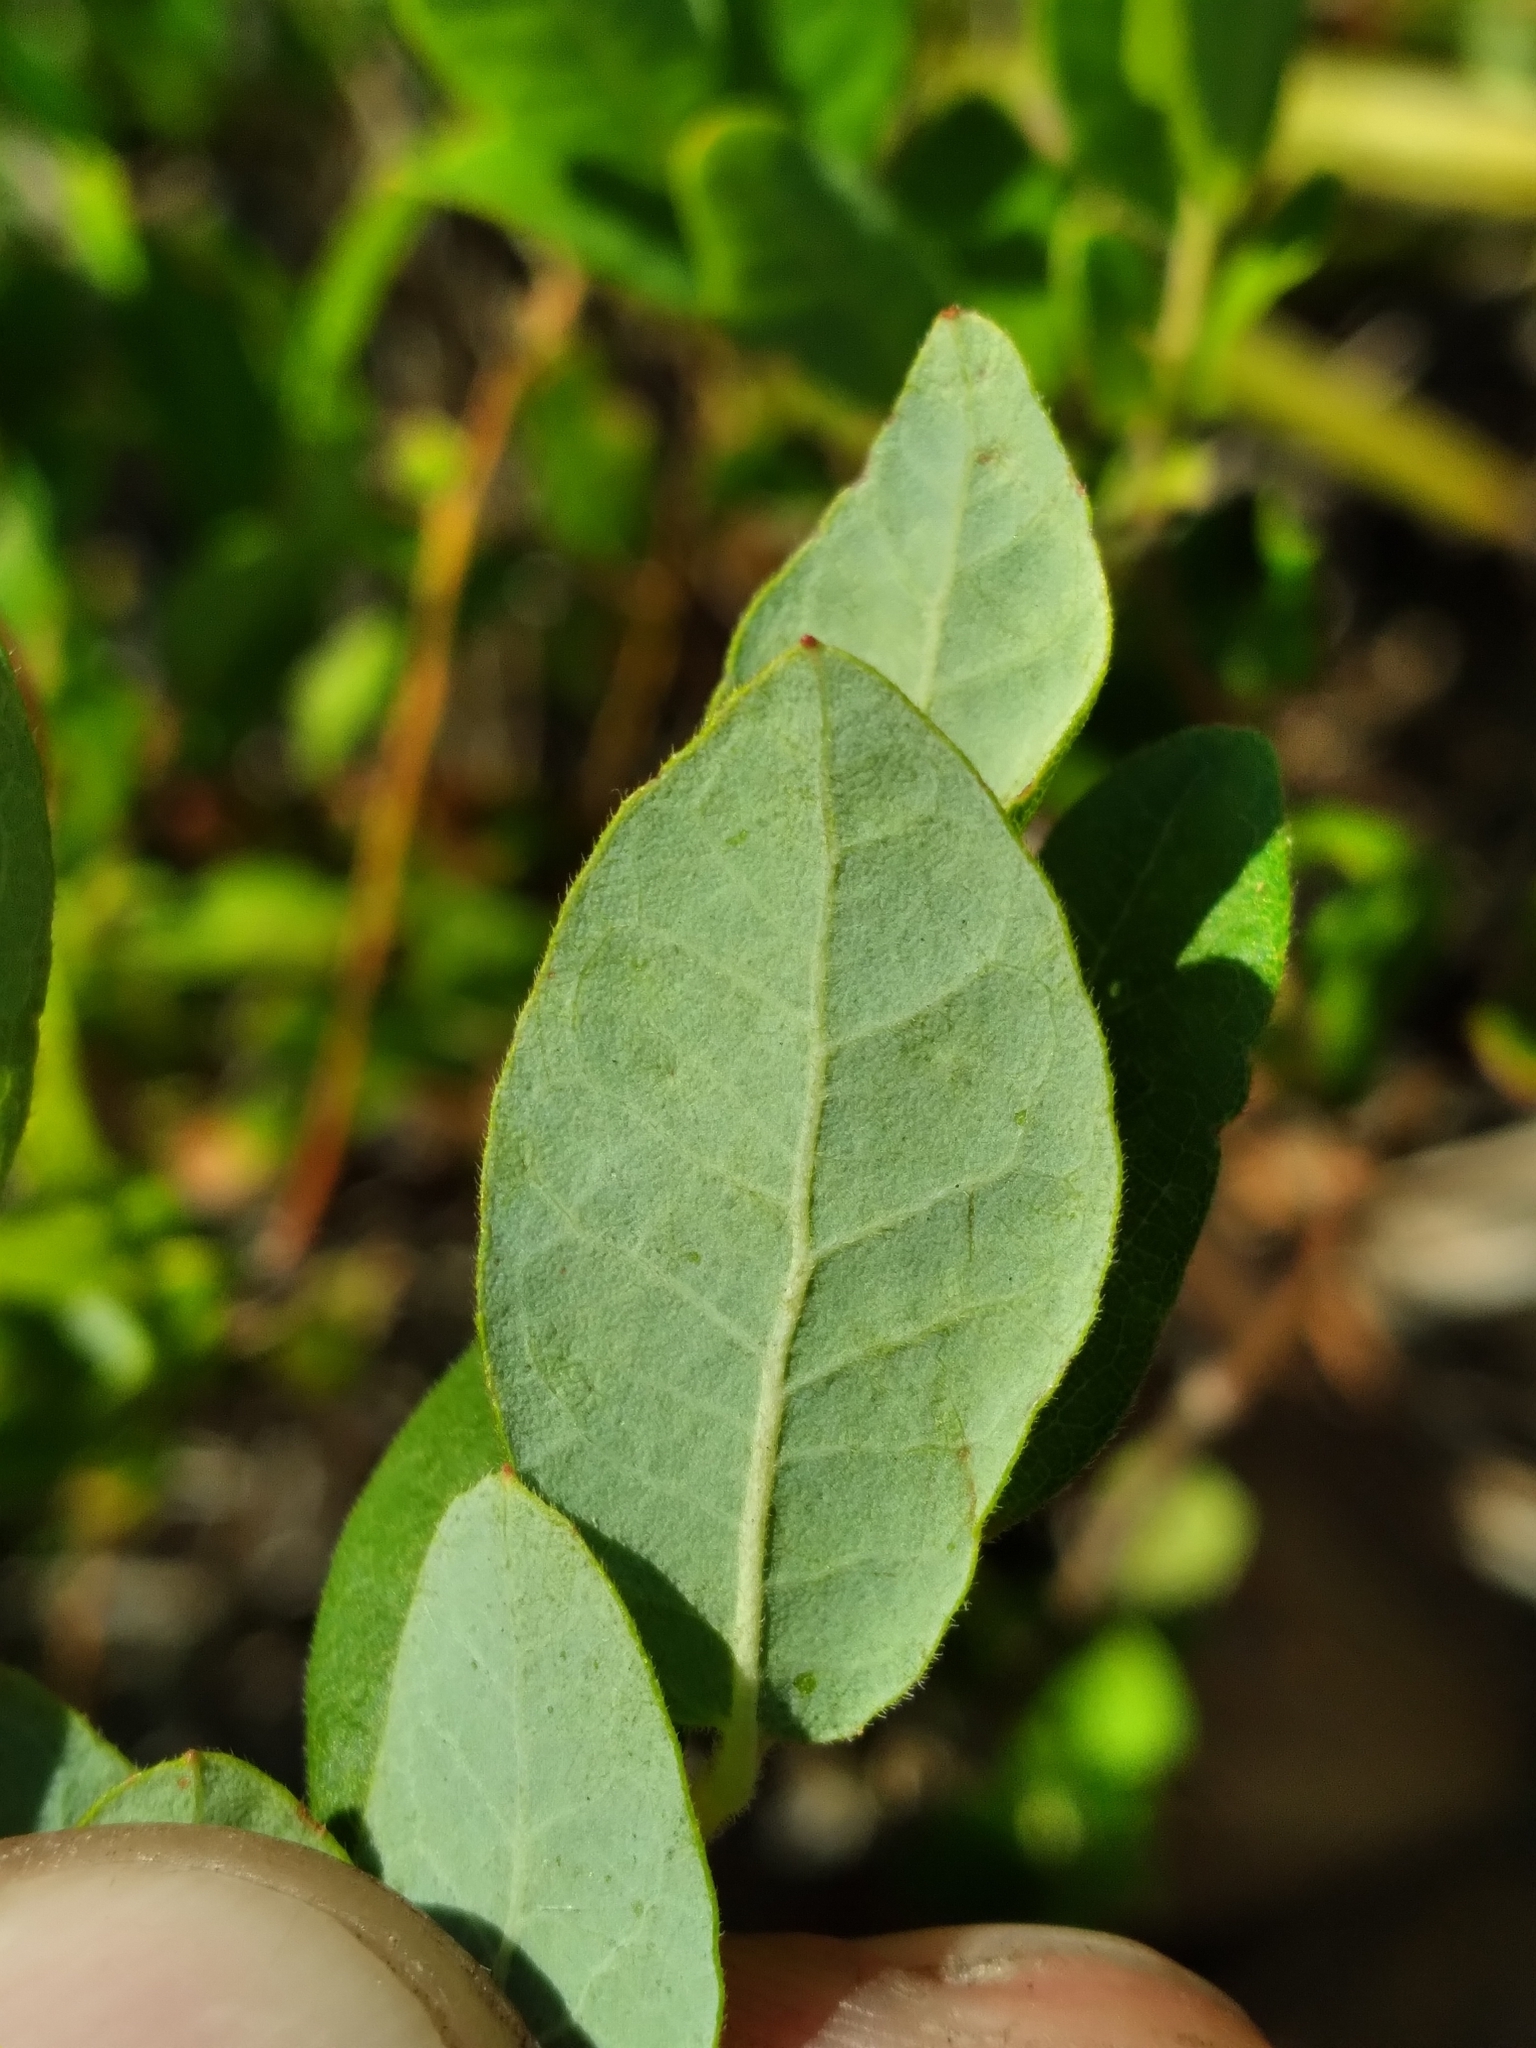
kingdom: Plantae
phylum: Tracheophyta
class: Magnoliopsida
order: Ericales
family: Ericaceae
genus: Vaccinium
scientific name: Vaccinium stamineum
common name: Deerberry
